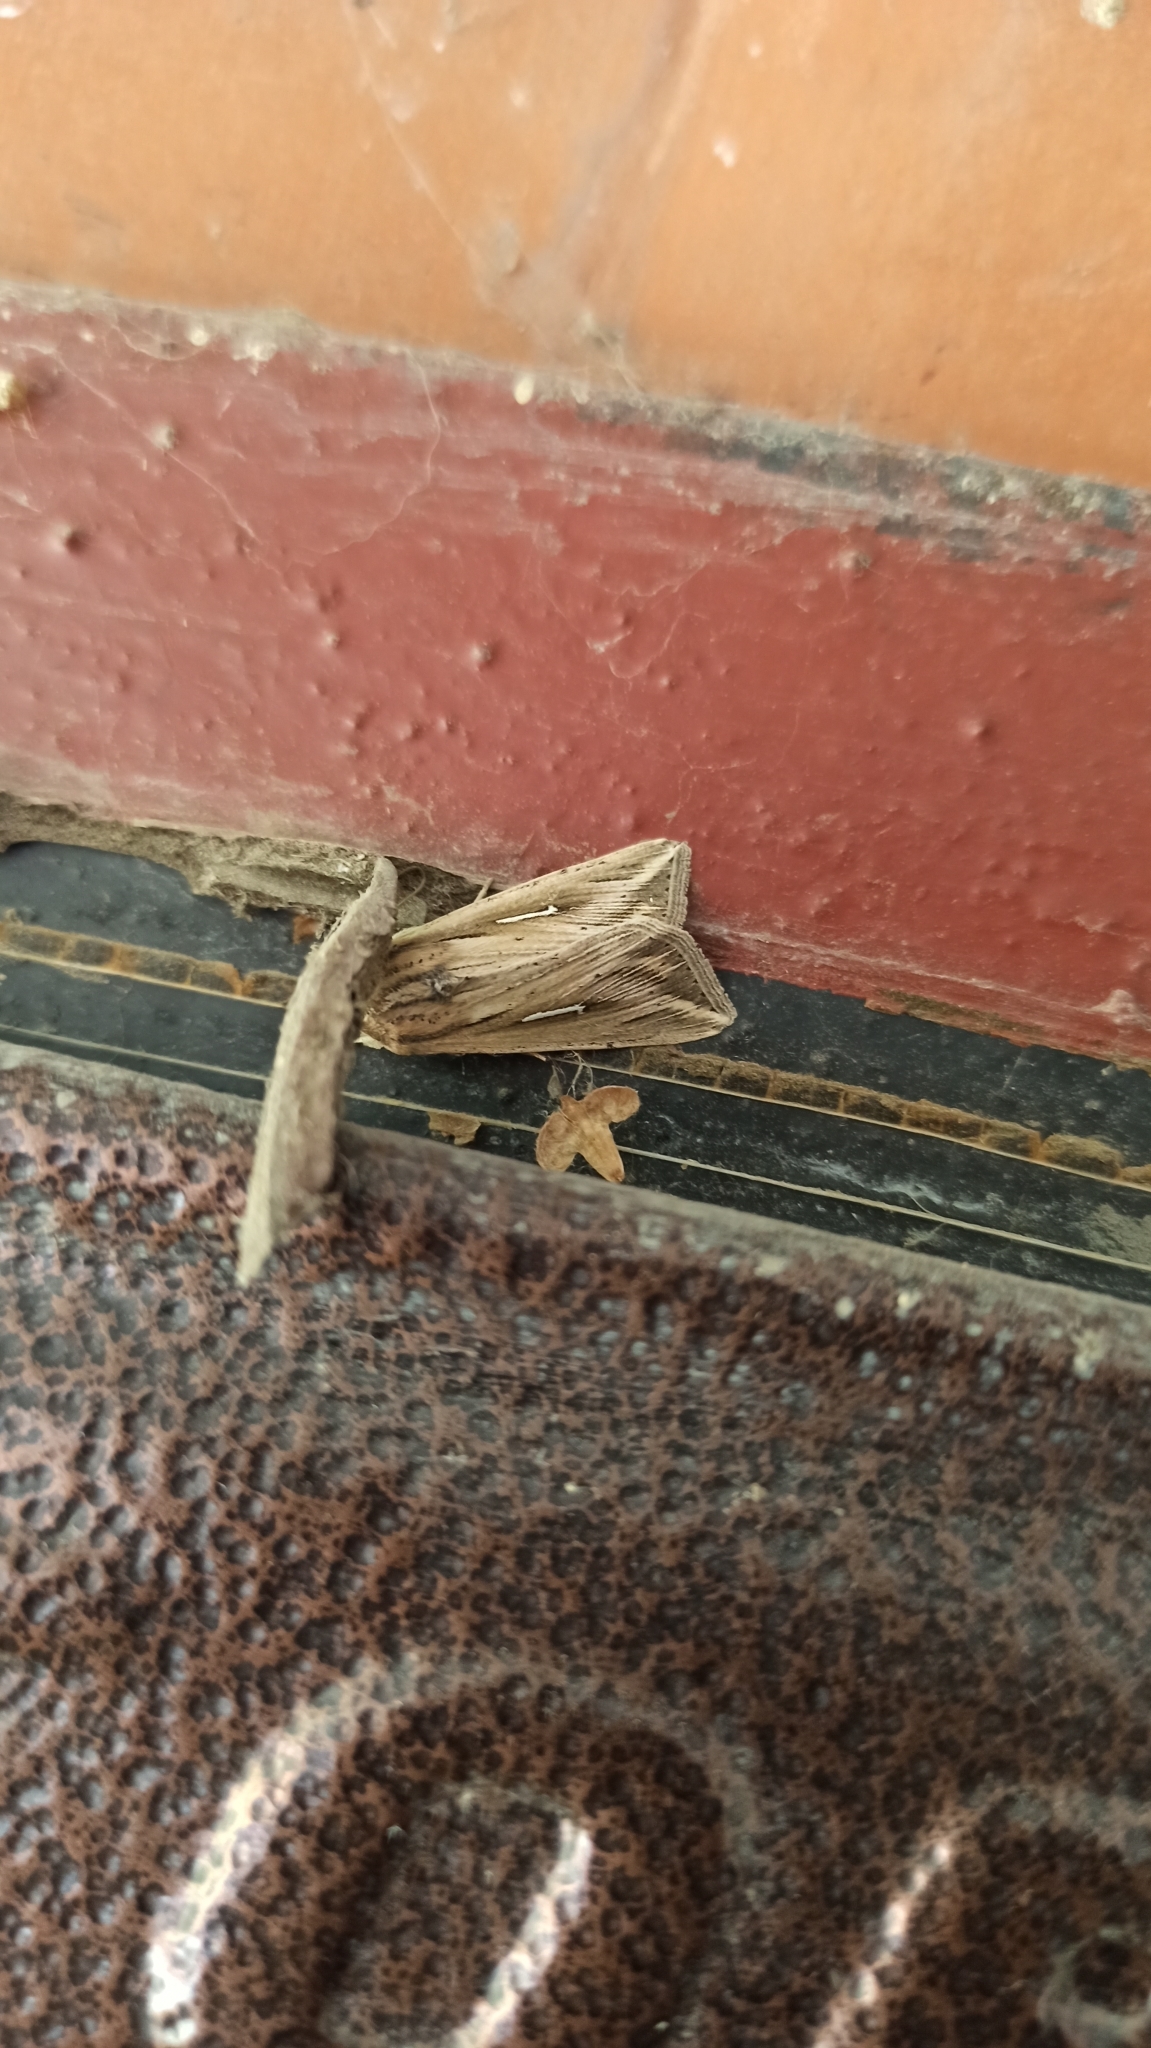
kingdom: Animalia
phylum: Arthropoda
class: Insecta
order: Lepidoptera
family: Noctuidae
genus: Mythimna
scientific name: Mythimna l-album
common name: L-album wainscot
